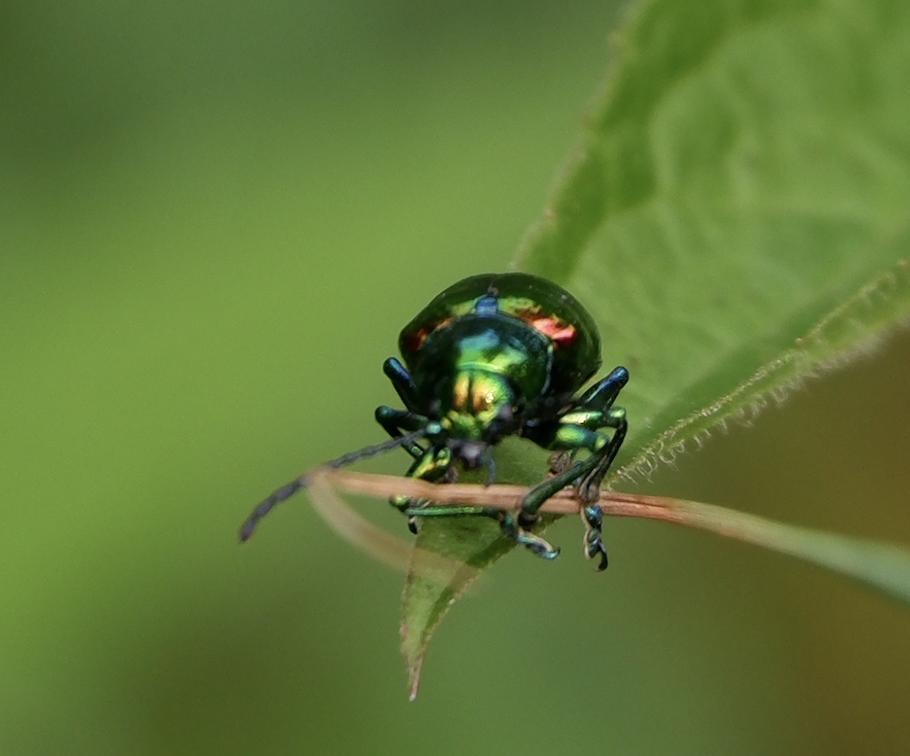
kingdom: Animalia
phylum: Arthropoda
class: Insecta
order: Coleoptera
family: Chrysomelidae
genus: Chrysochus
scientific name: Chrysochus auratus
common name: Dogbane leaf beetle
